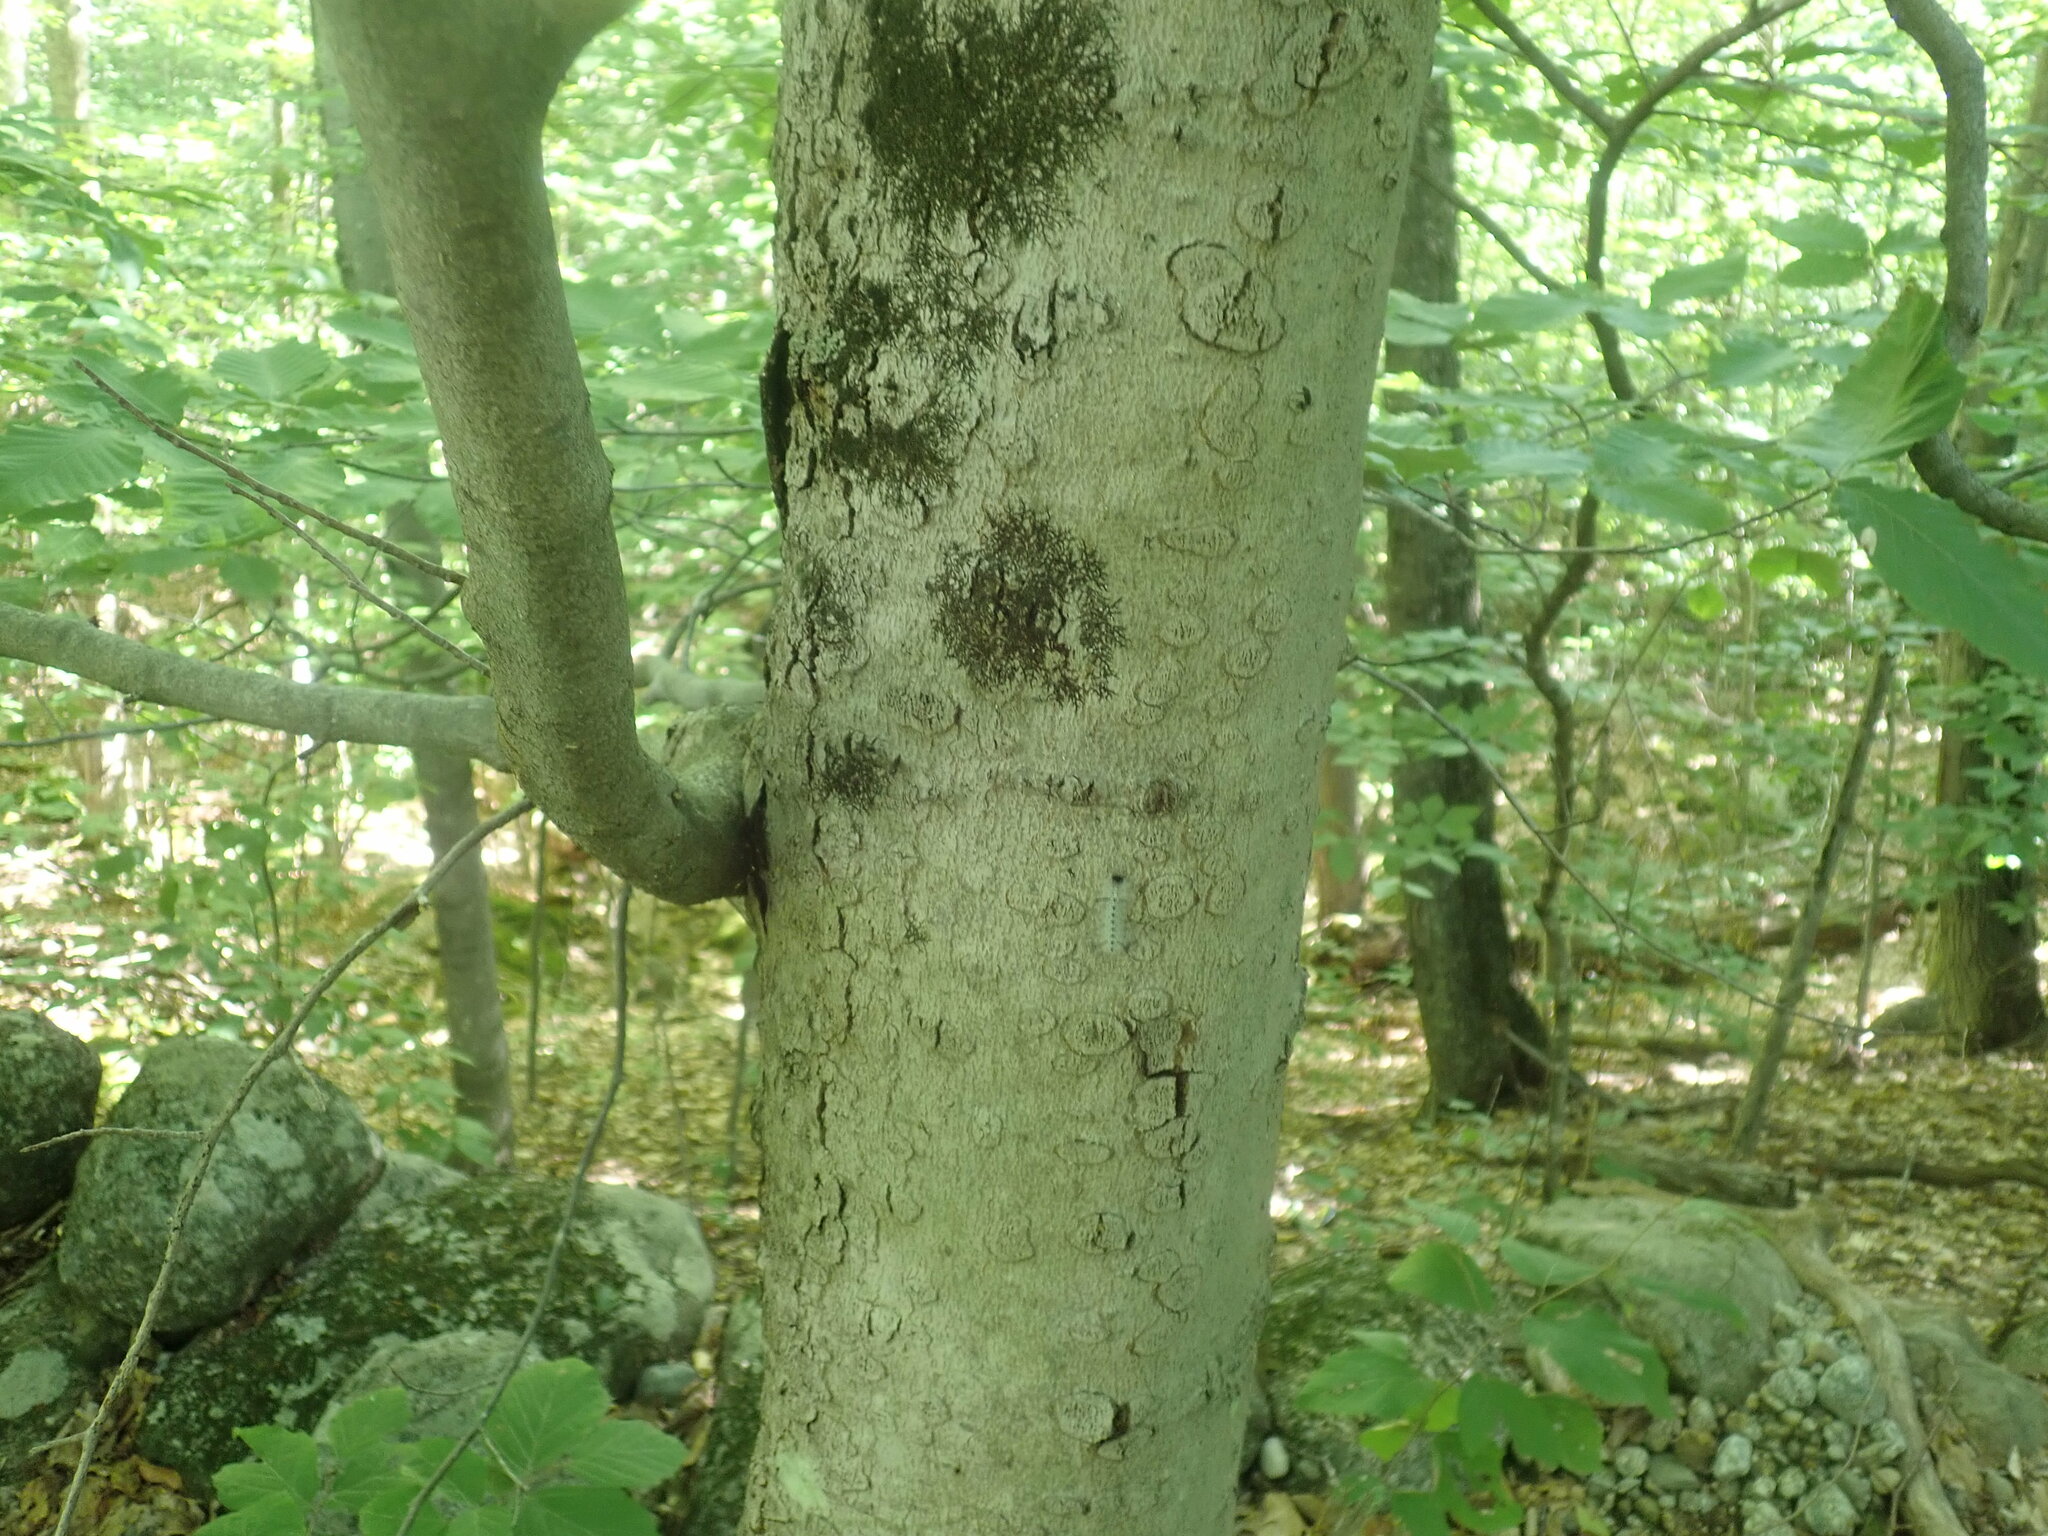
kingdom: Fungi
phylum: Ascomycota
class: Sordariomycetes
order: Hypocreales
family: Nectriaceae
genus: Neonectria
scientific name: Neonectria faginata
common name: Beech bark canker
